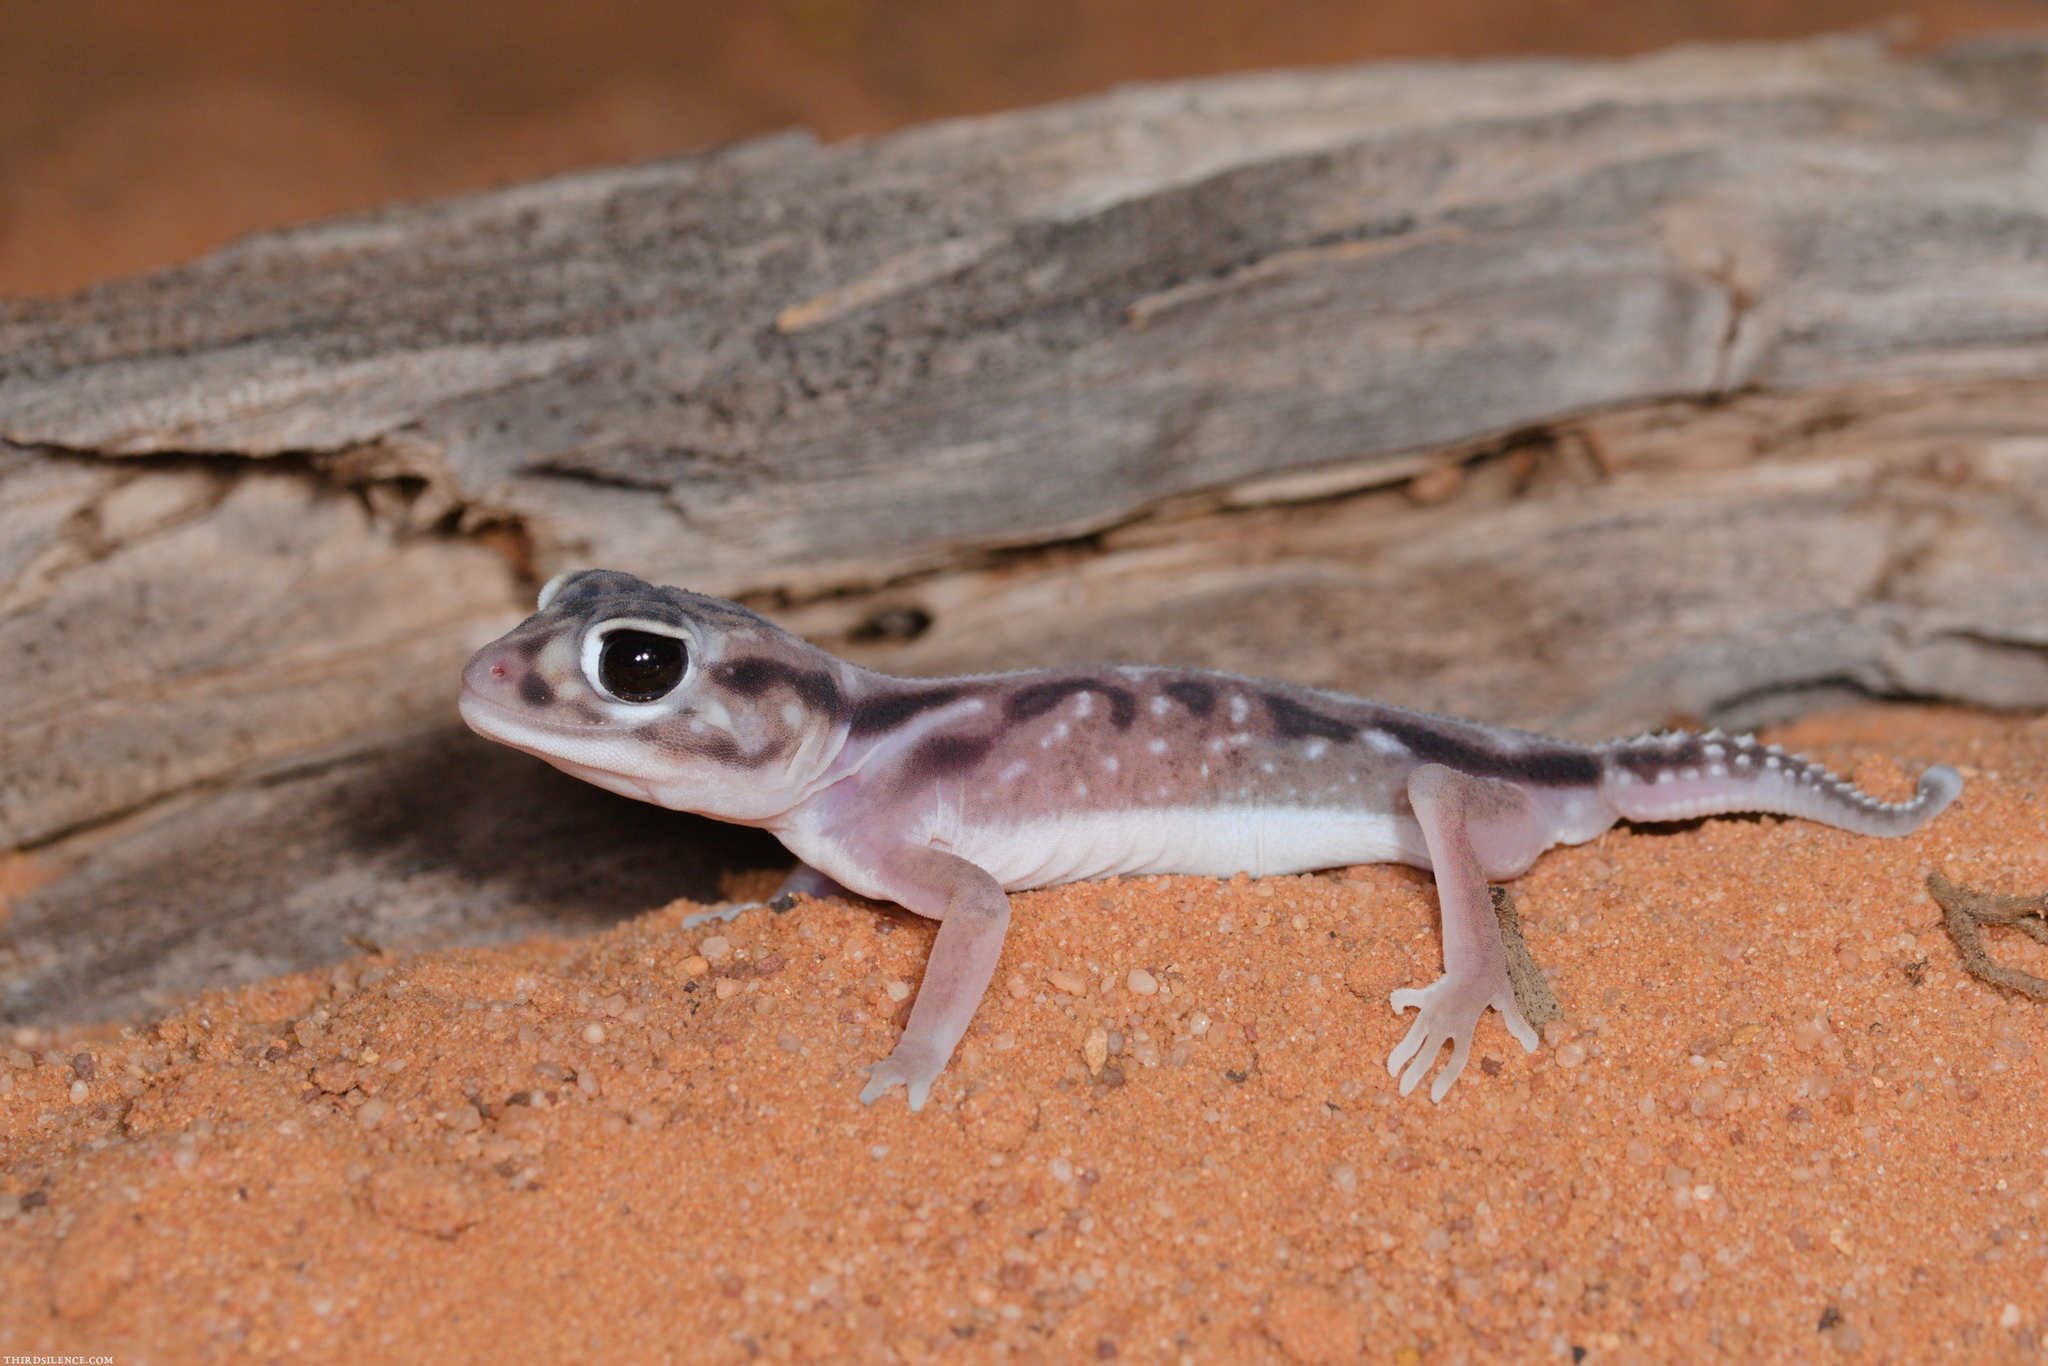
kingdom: Animalia
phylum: Chordata
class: Squamata
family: Carphodactylidae
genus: Nephrurus
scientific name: Nephrurus deleani
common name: Pernatty knob-tail
